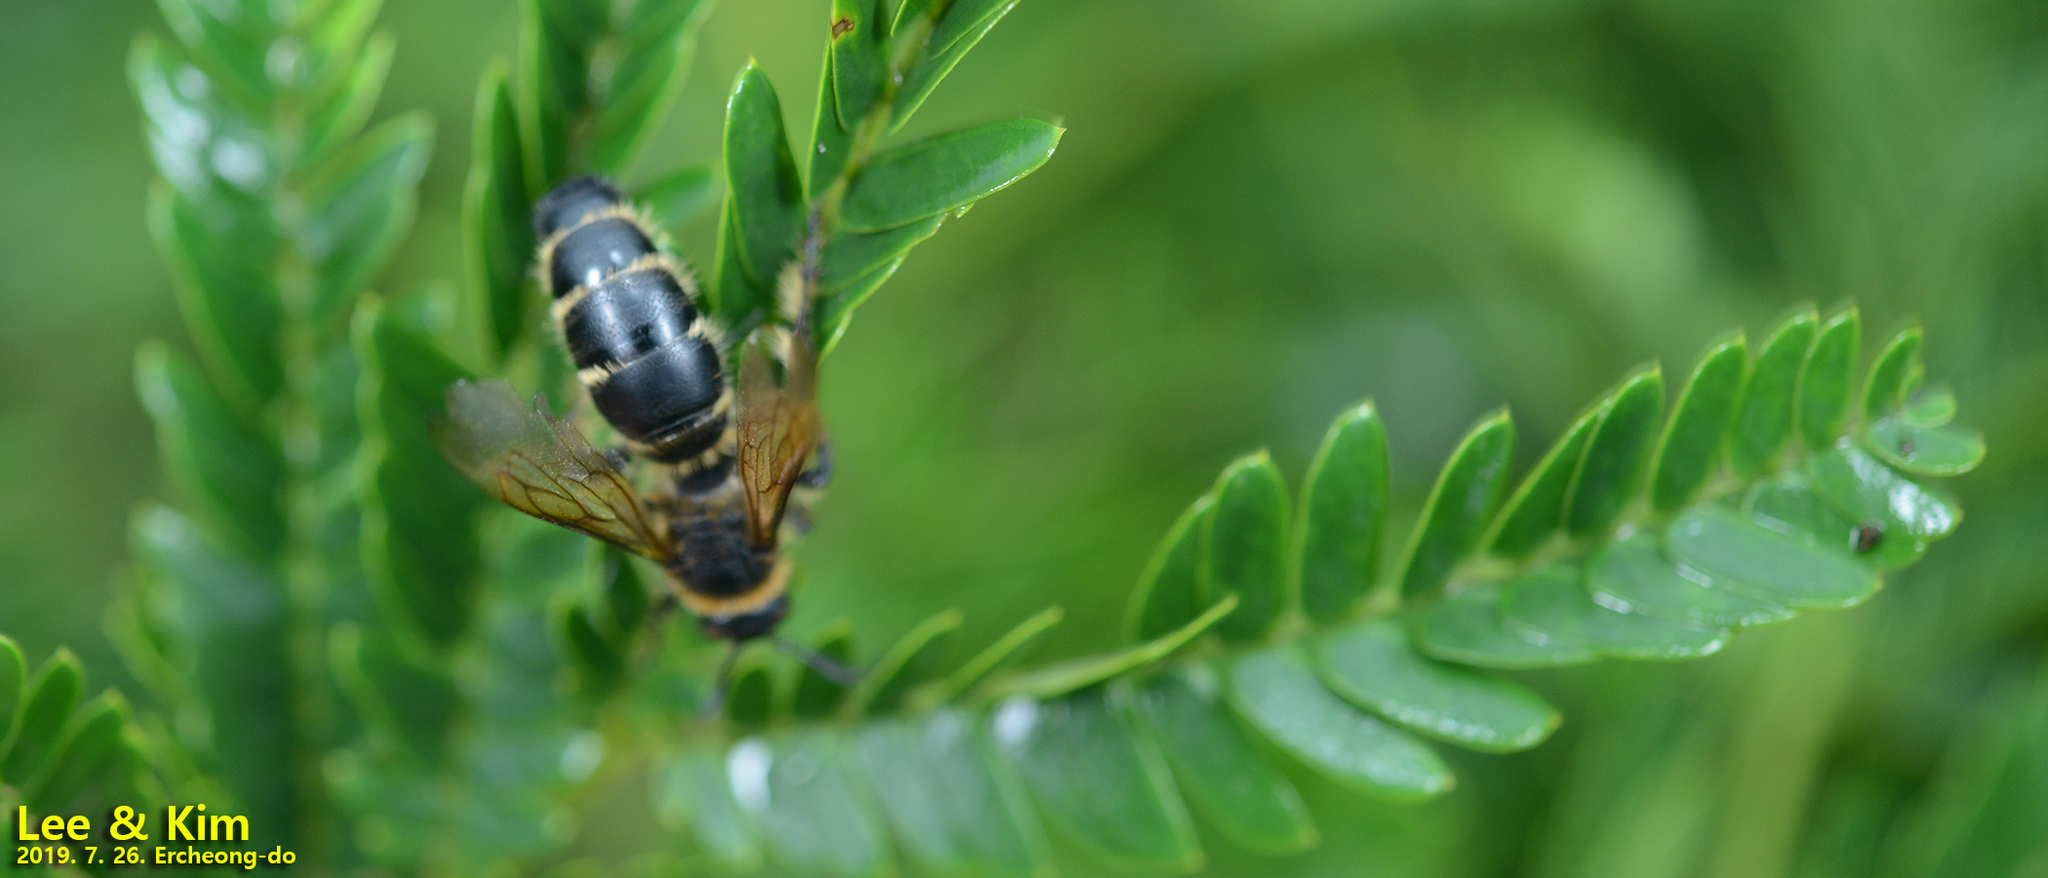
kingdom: Animalia
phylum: Arthropoda
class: Insecta
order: Hymenoptera
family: Scoliidae
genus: Campsomeris
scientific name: Campsomeris annulata
